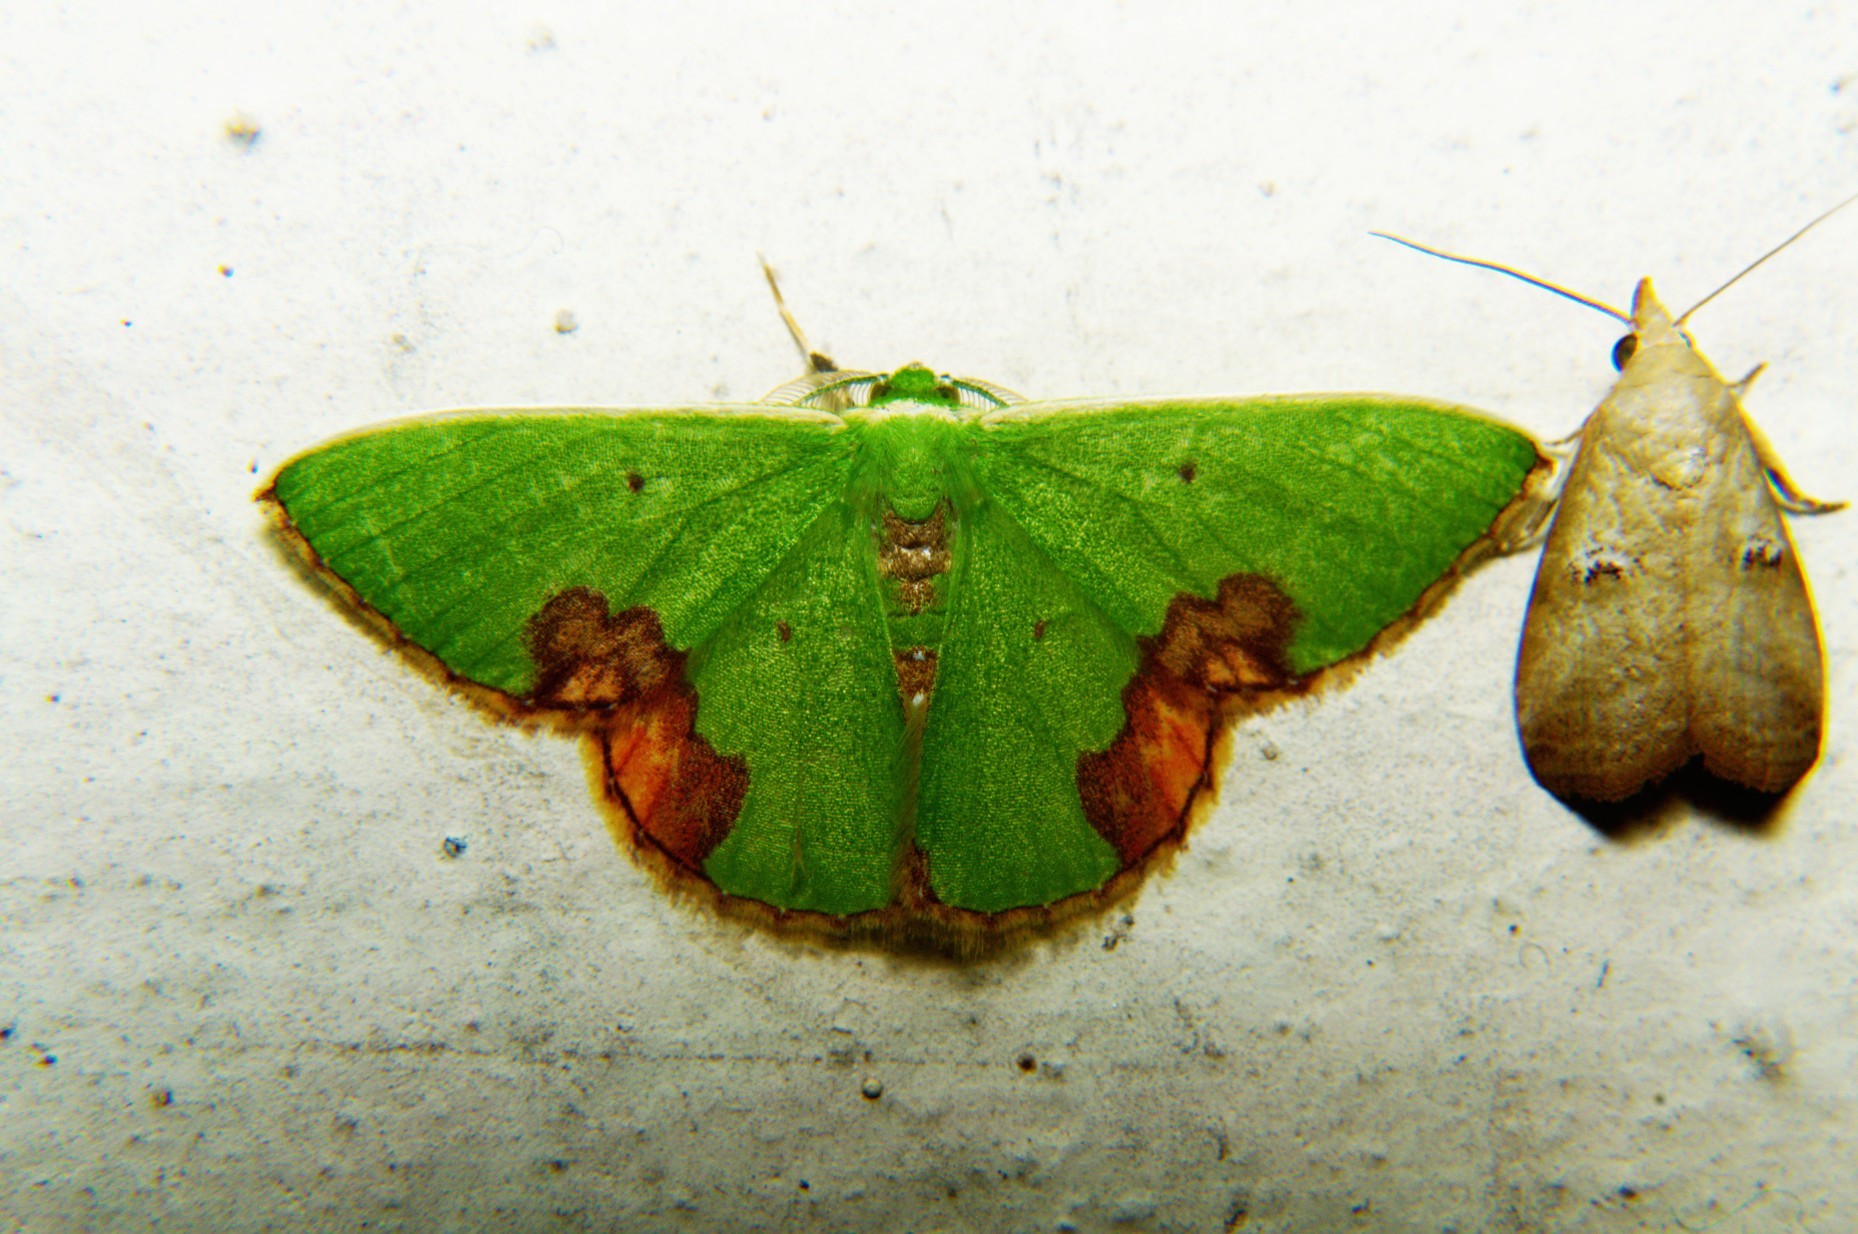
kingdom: Animalia
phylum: Arthropoda
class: Insecta
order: Lepidoptera
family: Geometridae
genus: Comibaena
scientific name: Comibaena biplaga
